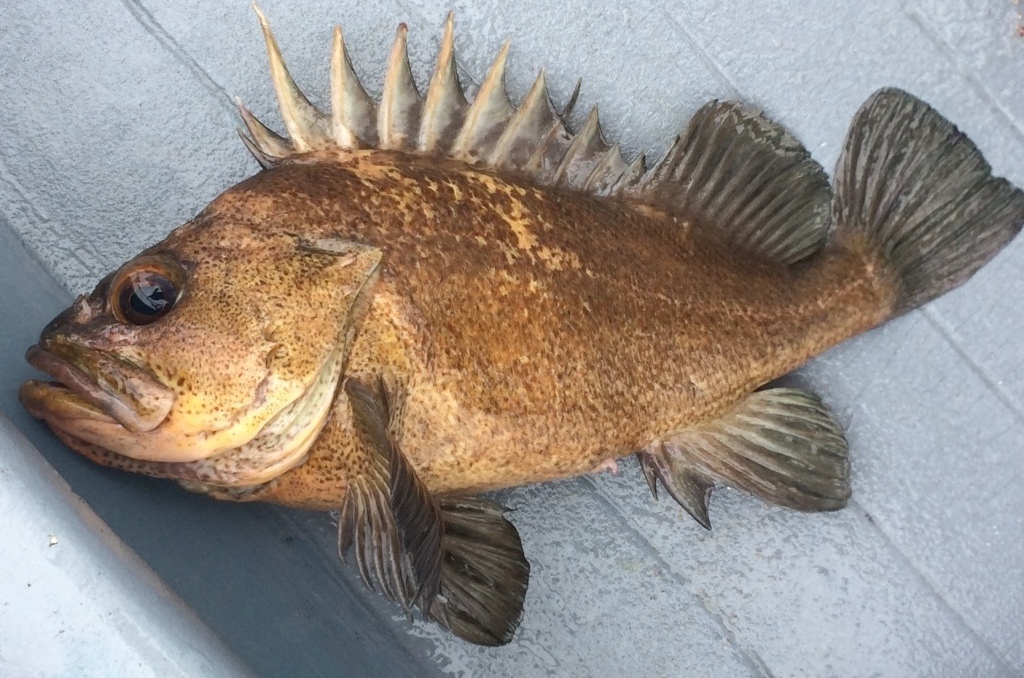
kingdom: Animalia
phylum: Chordata
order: Scorpaeniformes
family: Sebastidae
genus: Sebastes
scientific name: Sebastes maliger
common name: Quillback rockfish
